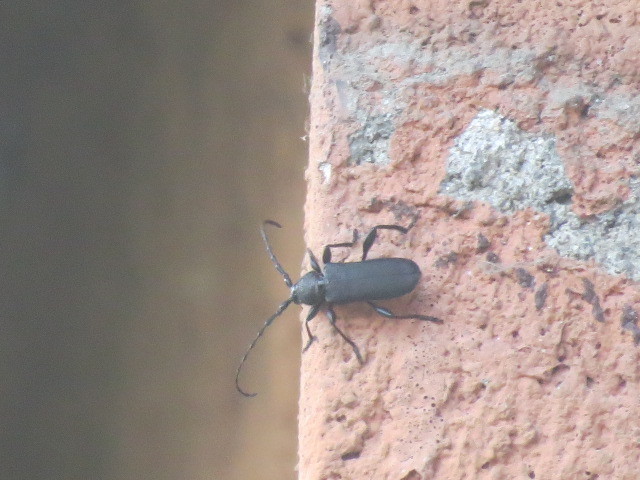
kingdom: Animalia
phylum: Arthropoda
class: Insecta
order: Coleoptera
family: Cerambycidae
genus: Ropalopus
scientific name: Ropalopus clavipes
